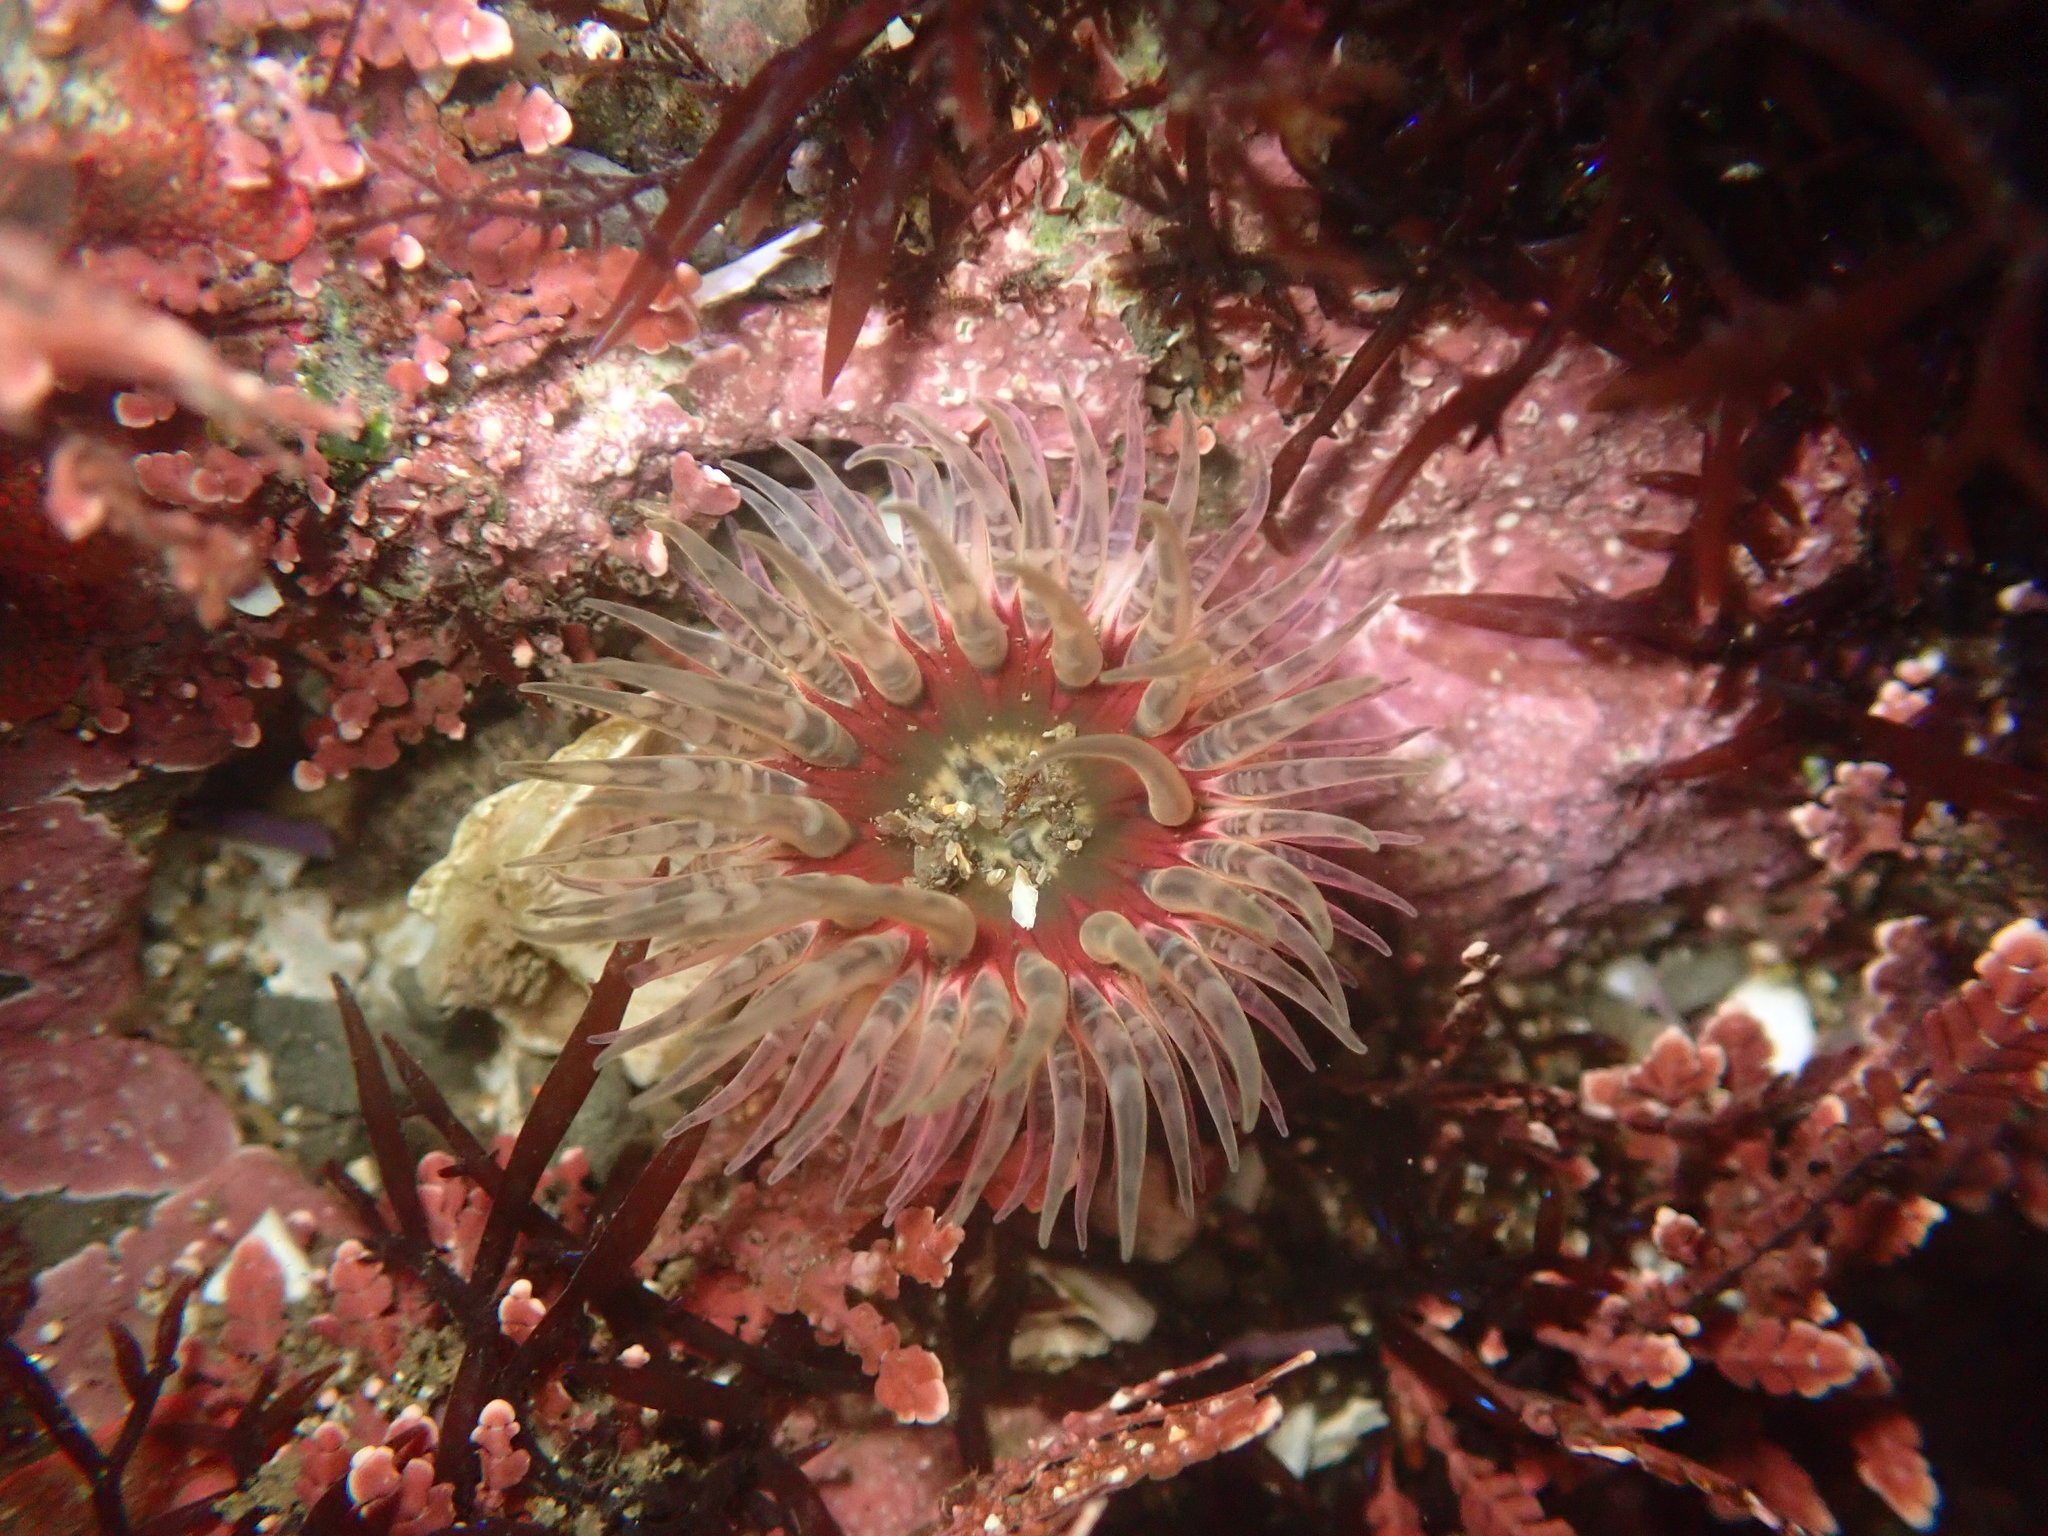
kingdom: Animalia
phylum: Cnidaria
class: Anthozoa
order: Actiniaria
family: Actiniidae
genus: Anthopleura
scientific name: Anthopleura artemisia
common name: Buried sea anemone
